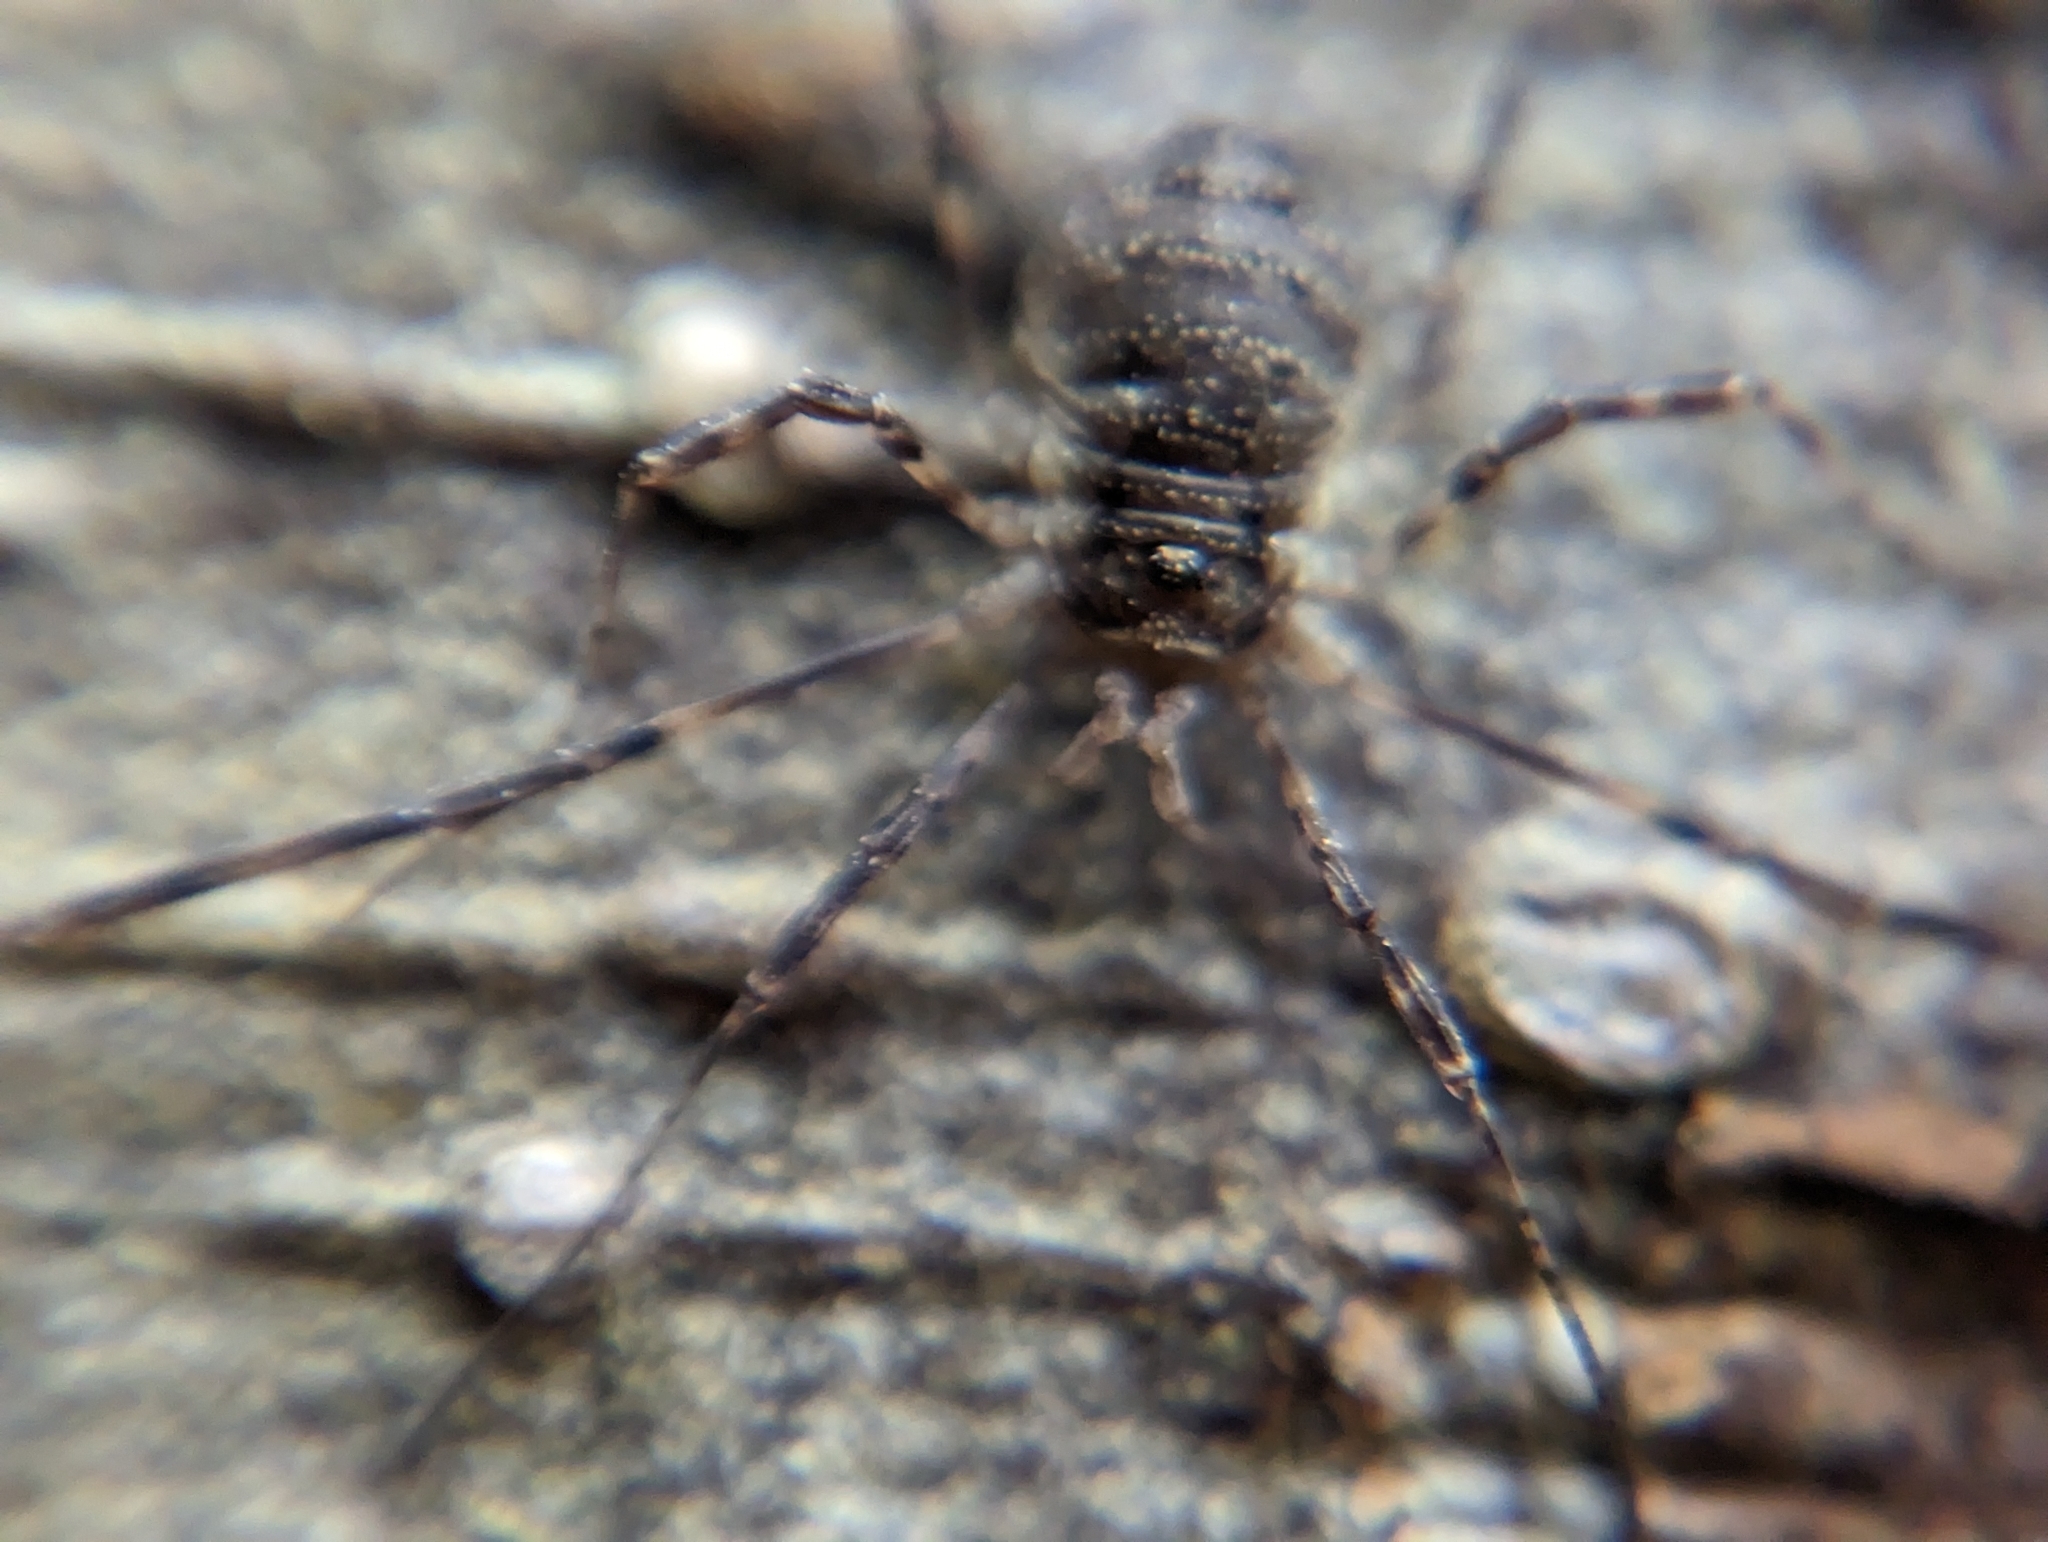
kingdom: Animalia
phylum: Arthropoda
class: Arachnida
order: Opiliones
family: Phalangiidae
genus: Oligolophus
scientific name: Oligolophus hansenii
